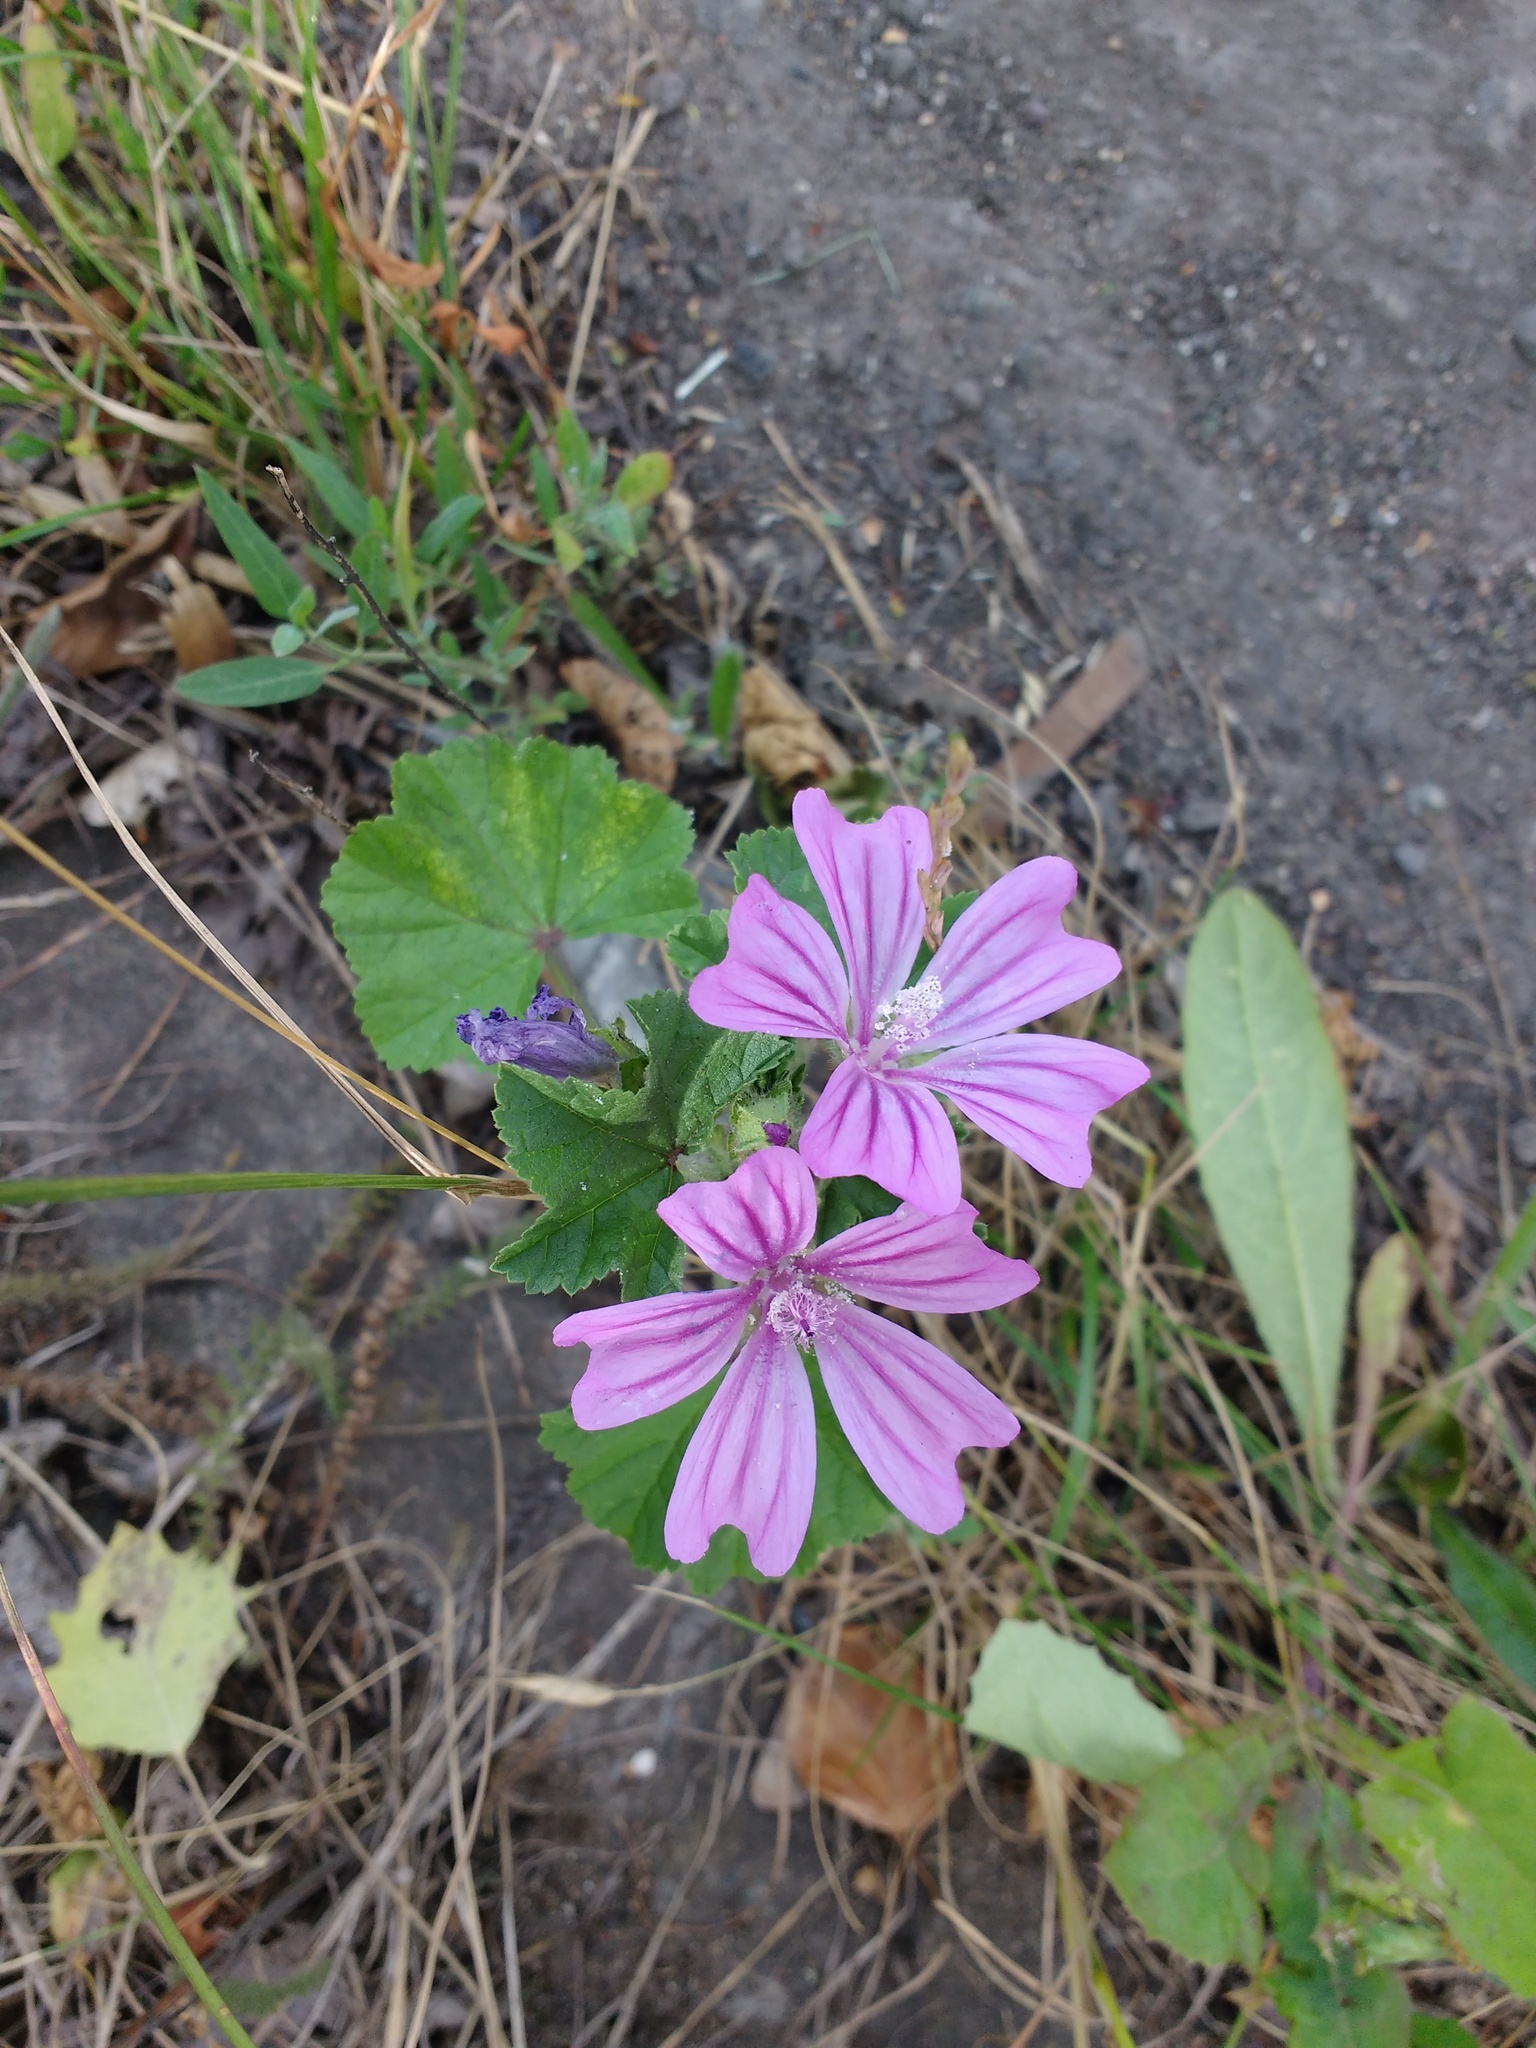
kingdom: Plantae
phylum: Tracheophyta
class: Magnoliopsida
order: Malvales
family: Malvaceae
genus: Malva
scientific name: Malva sylvestris
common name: Common mallow
